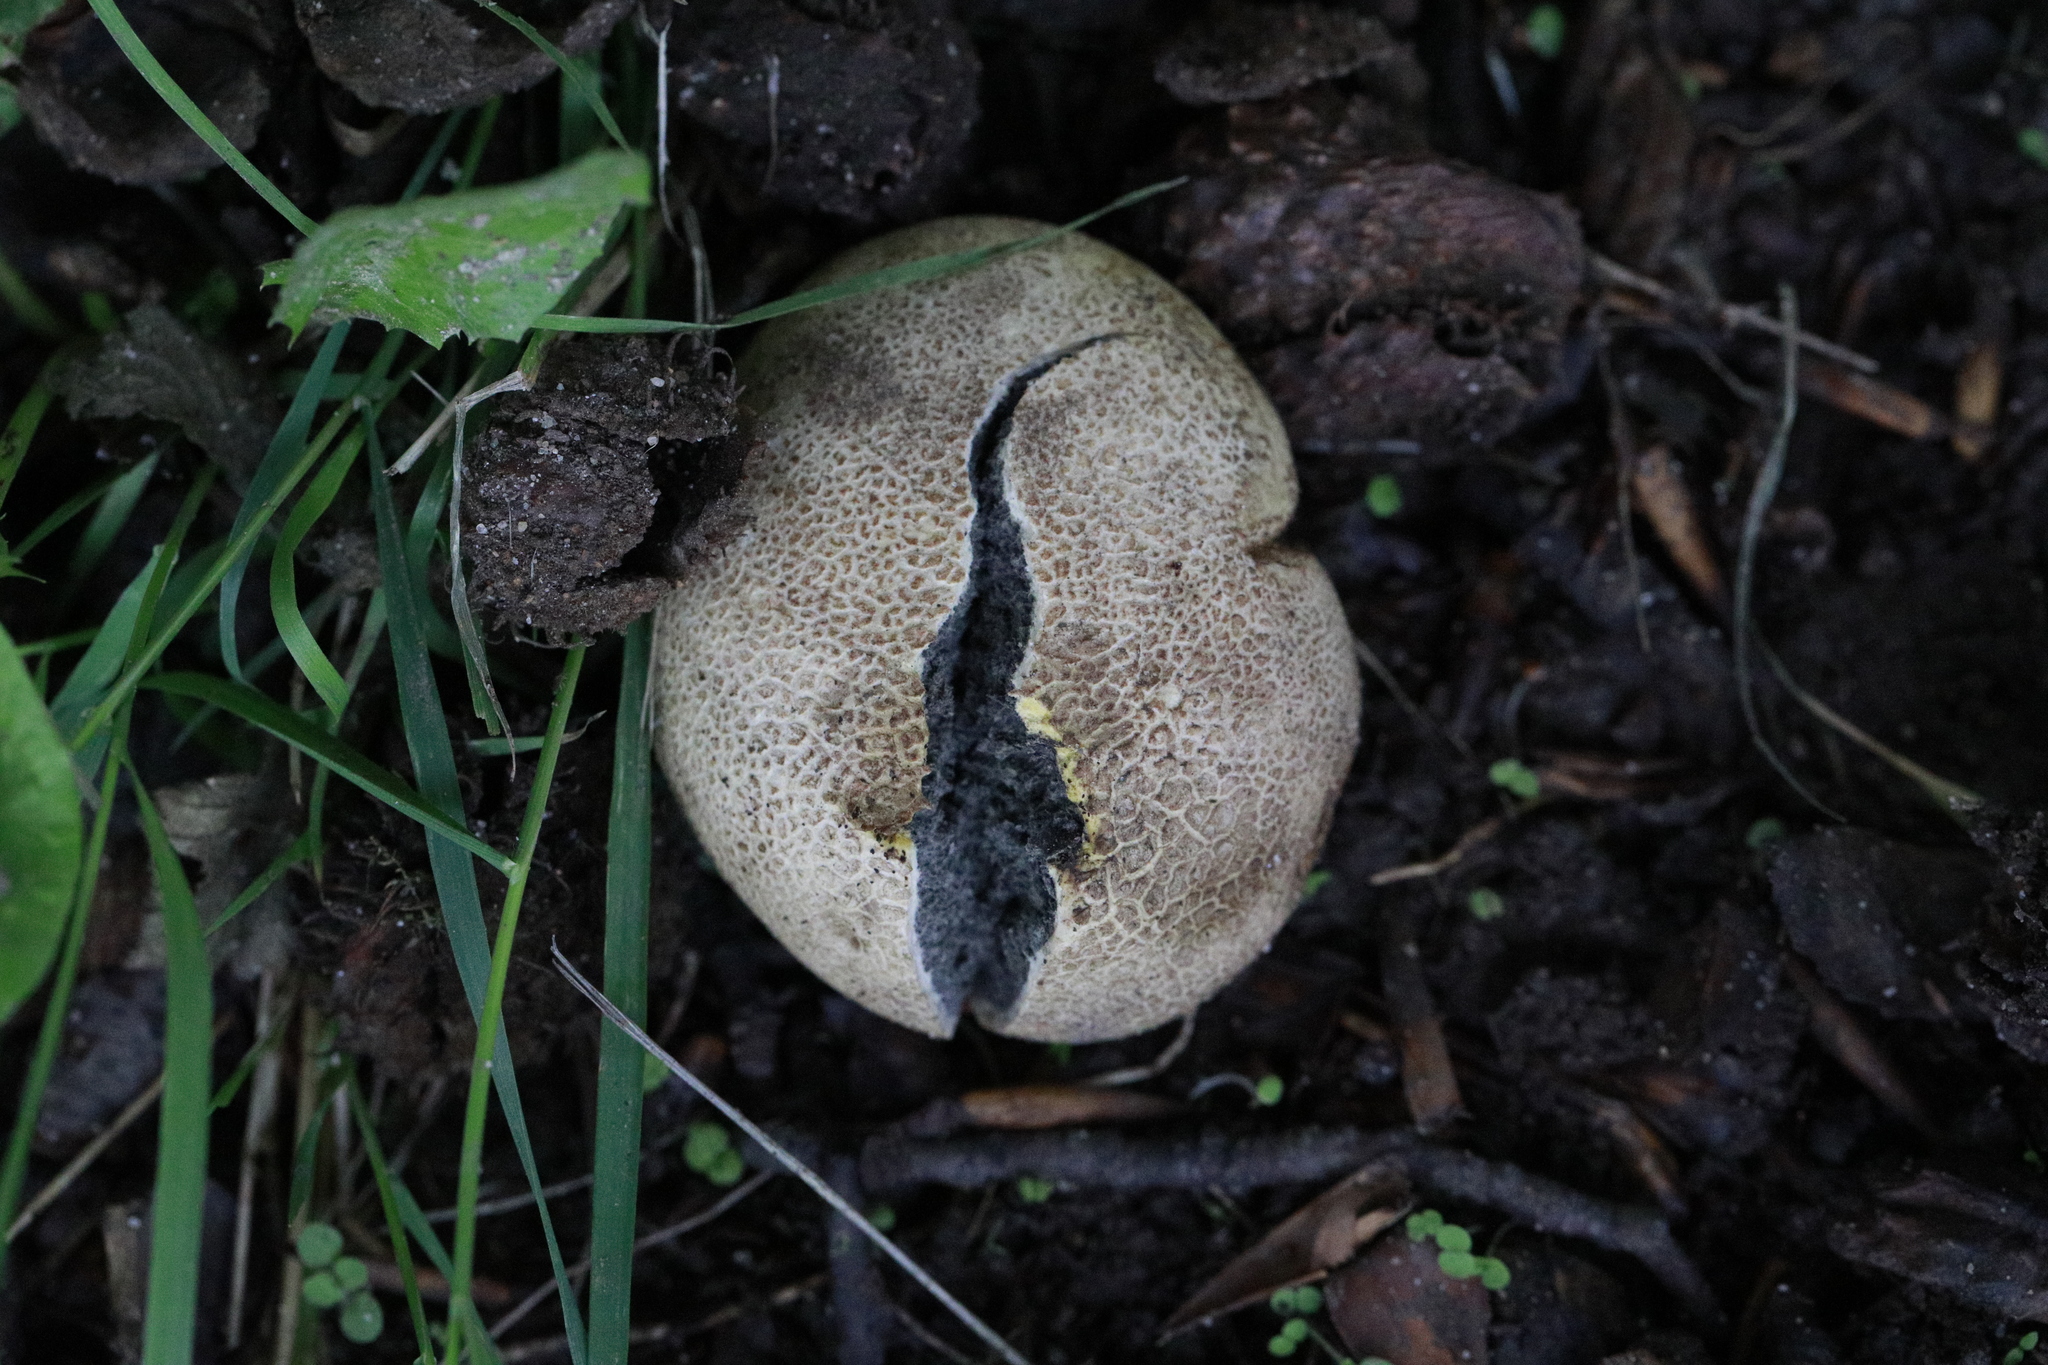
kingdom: Fungi
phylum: Basidiomycota
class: Agaricomycetes
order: Boletales
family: Sclerodermataceae
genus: Scleroderma
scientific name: Scleroderma citrinum
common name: Common earthball
